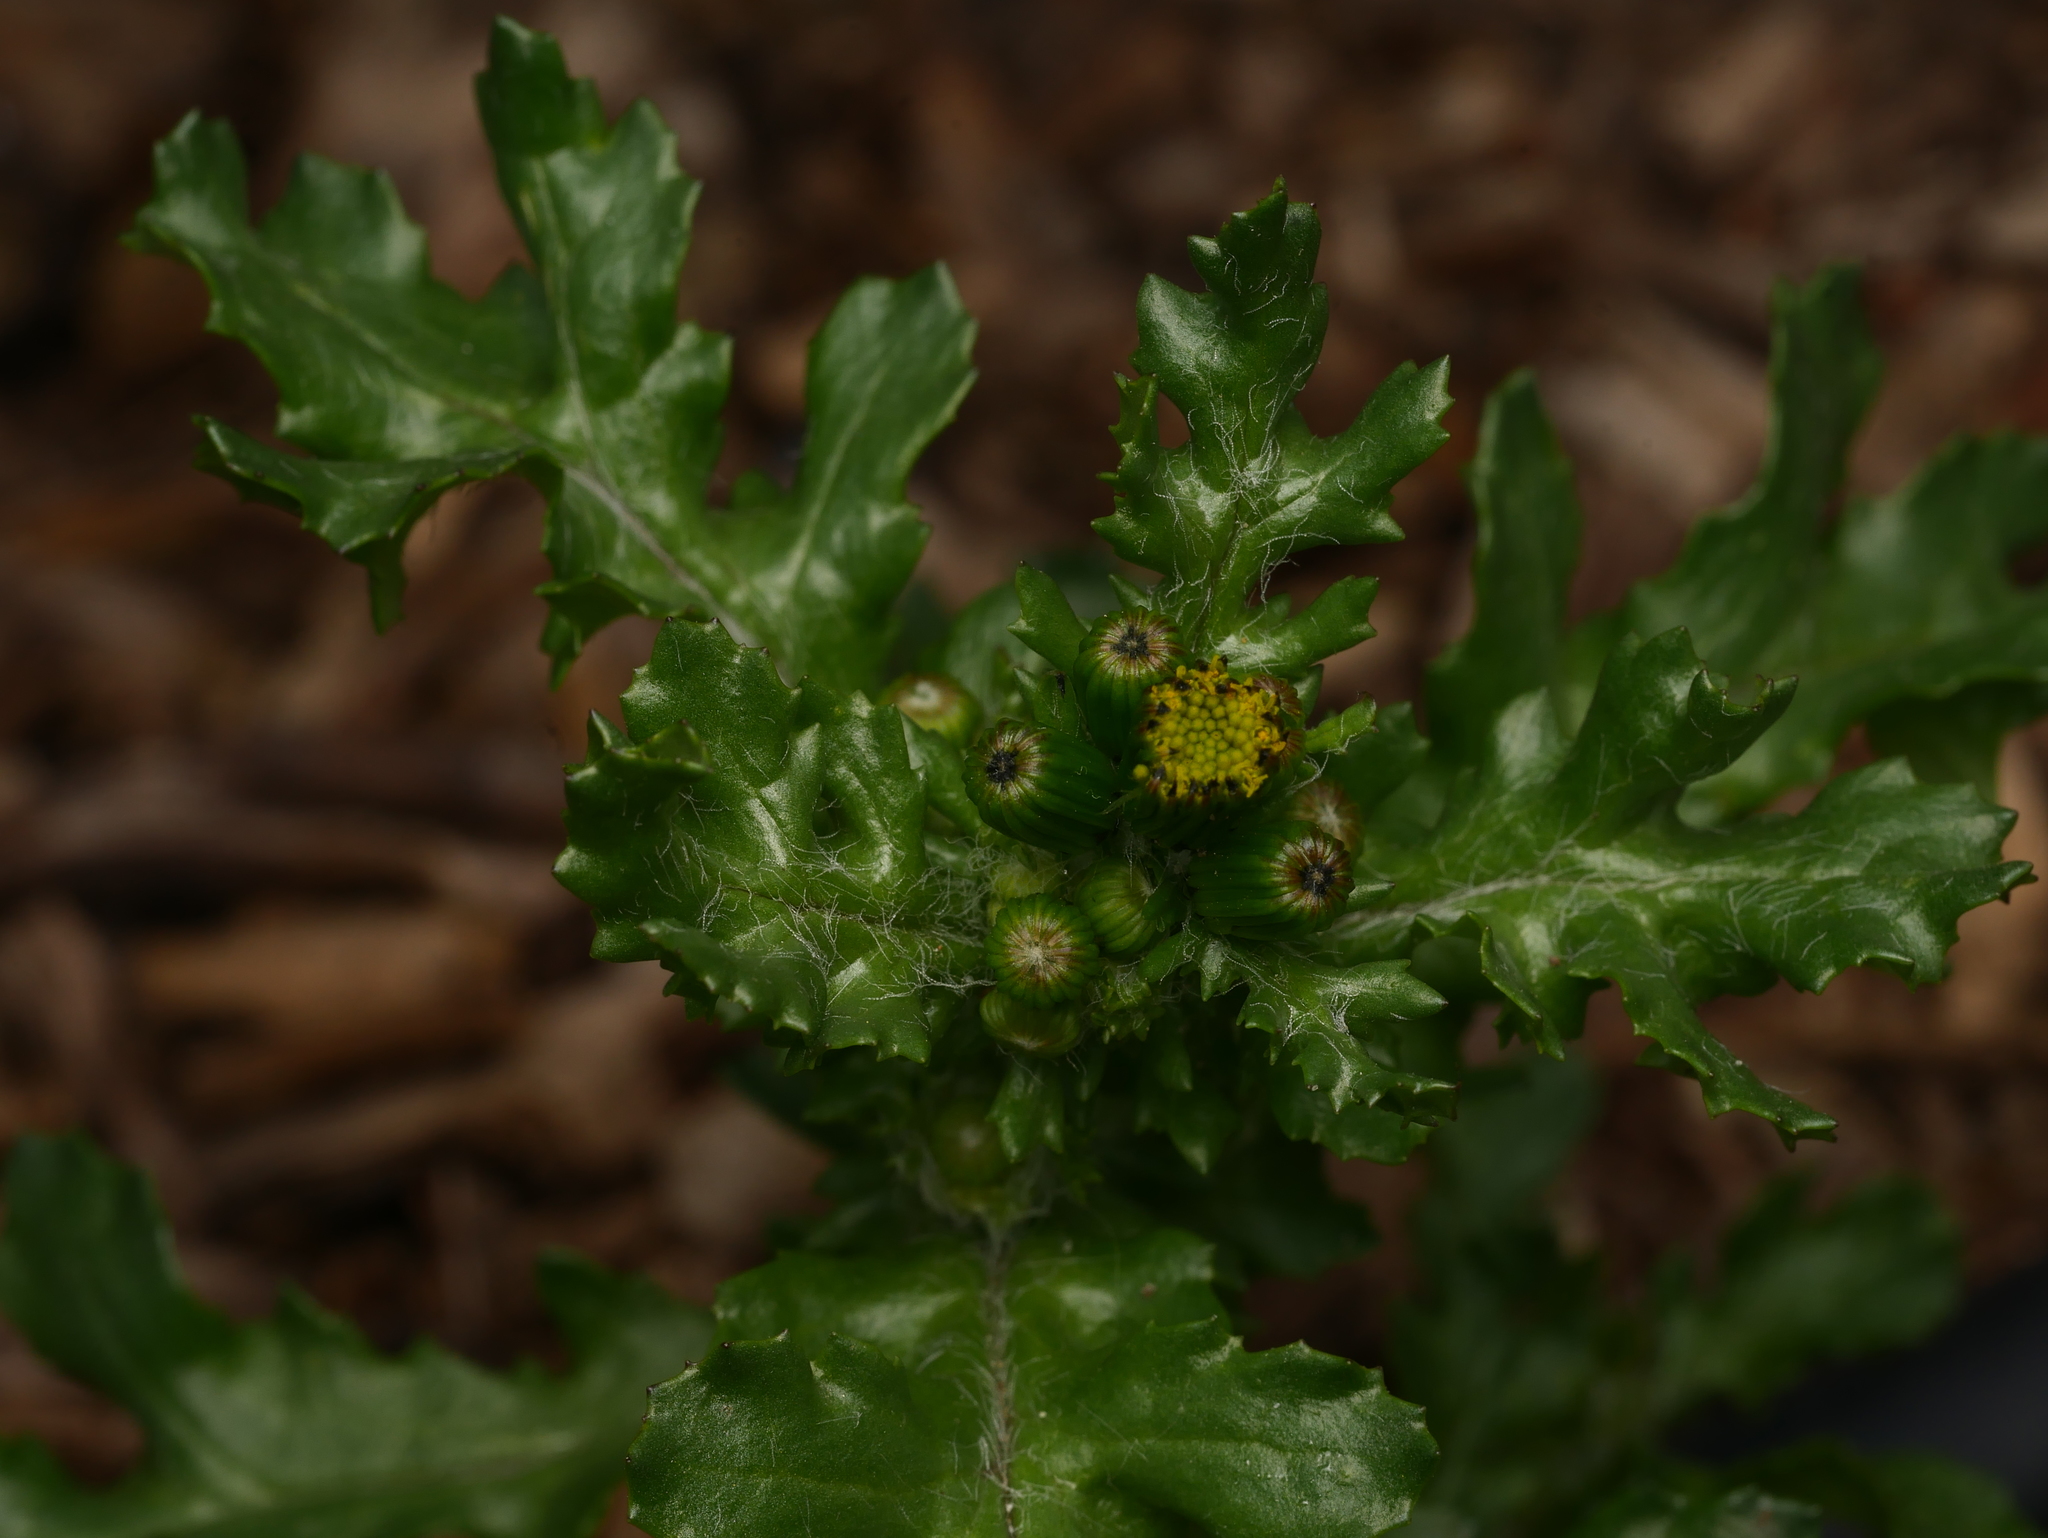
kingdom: Plantae
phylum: Tracheophyta
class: Magnoliopsida
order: Asterales
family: Asteraceae
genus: Senecio
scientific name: Senecio vulgaris
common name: Old-man-in-the-spring
